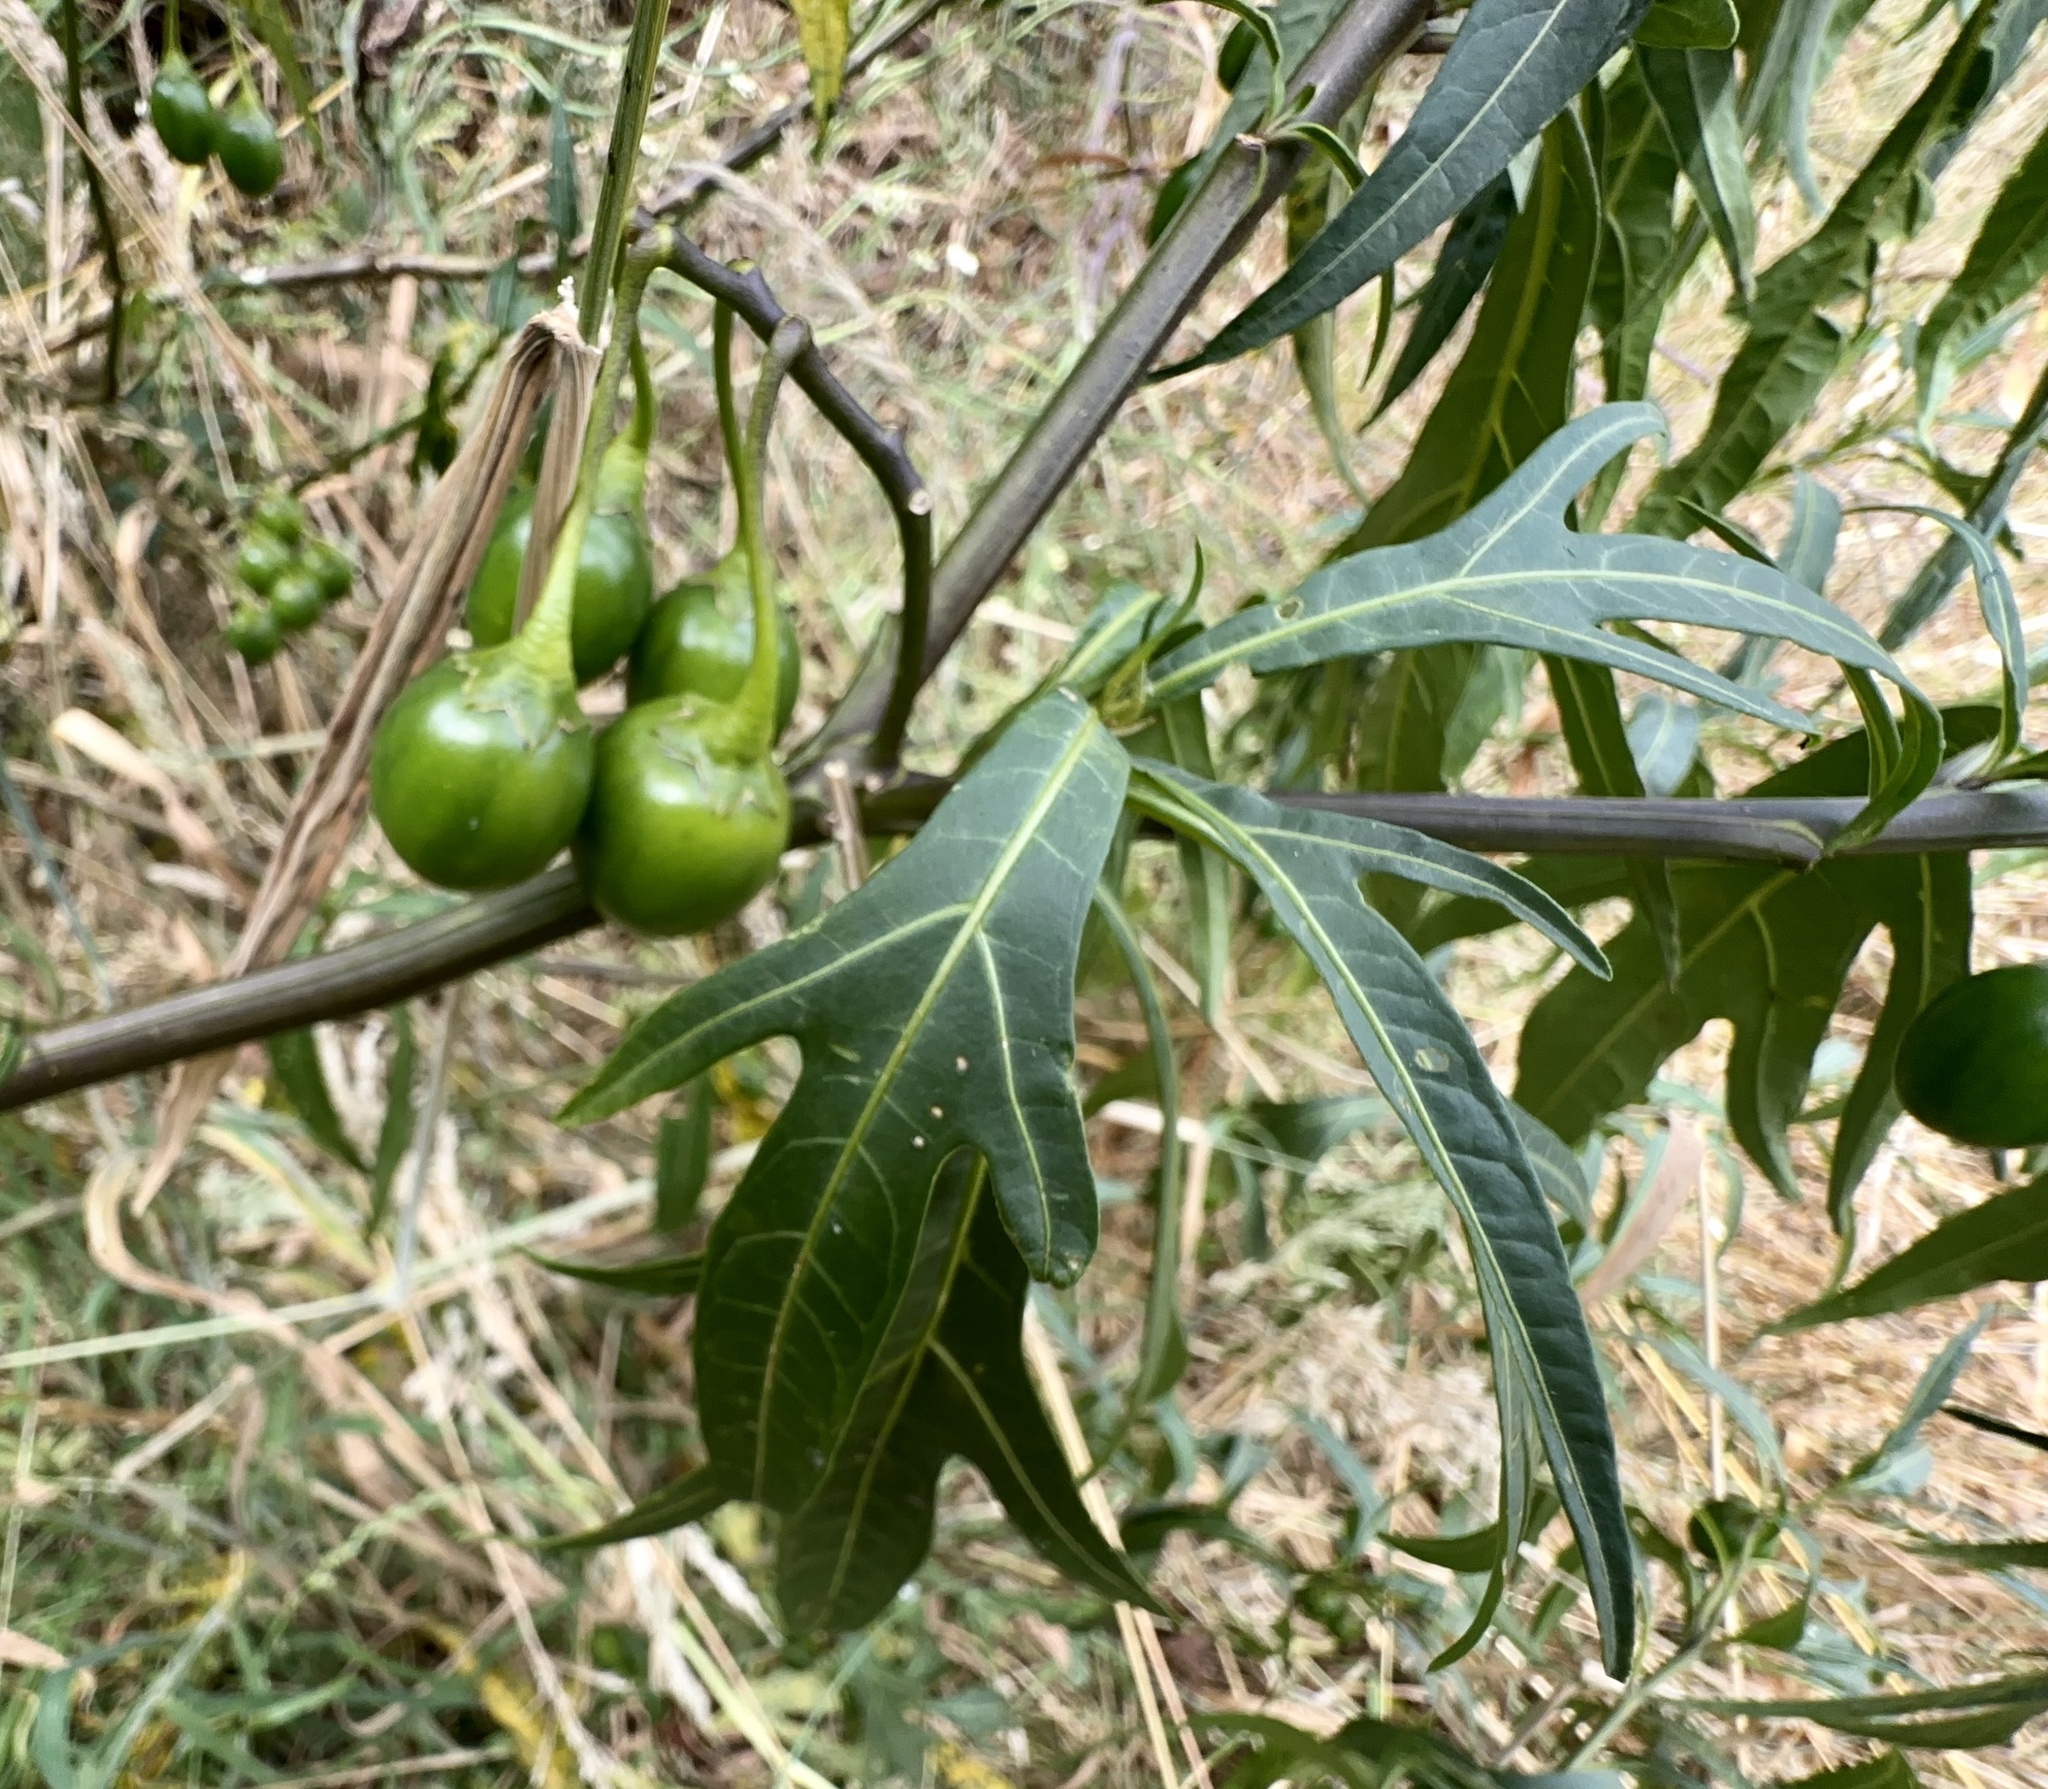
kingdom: Plantae
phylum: Tracheophyta
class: Magnoliopsida
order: Solanales
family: Solanaceae
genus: Solanum
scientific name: Solanum laciniatum
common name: Kangaroo-apple
